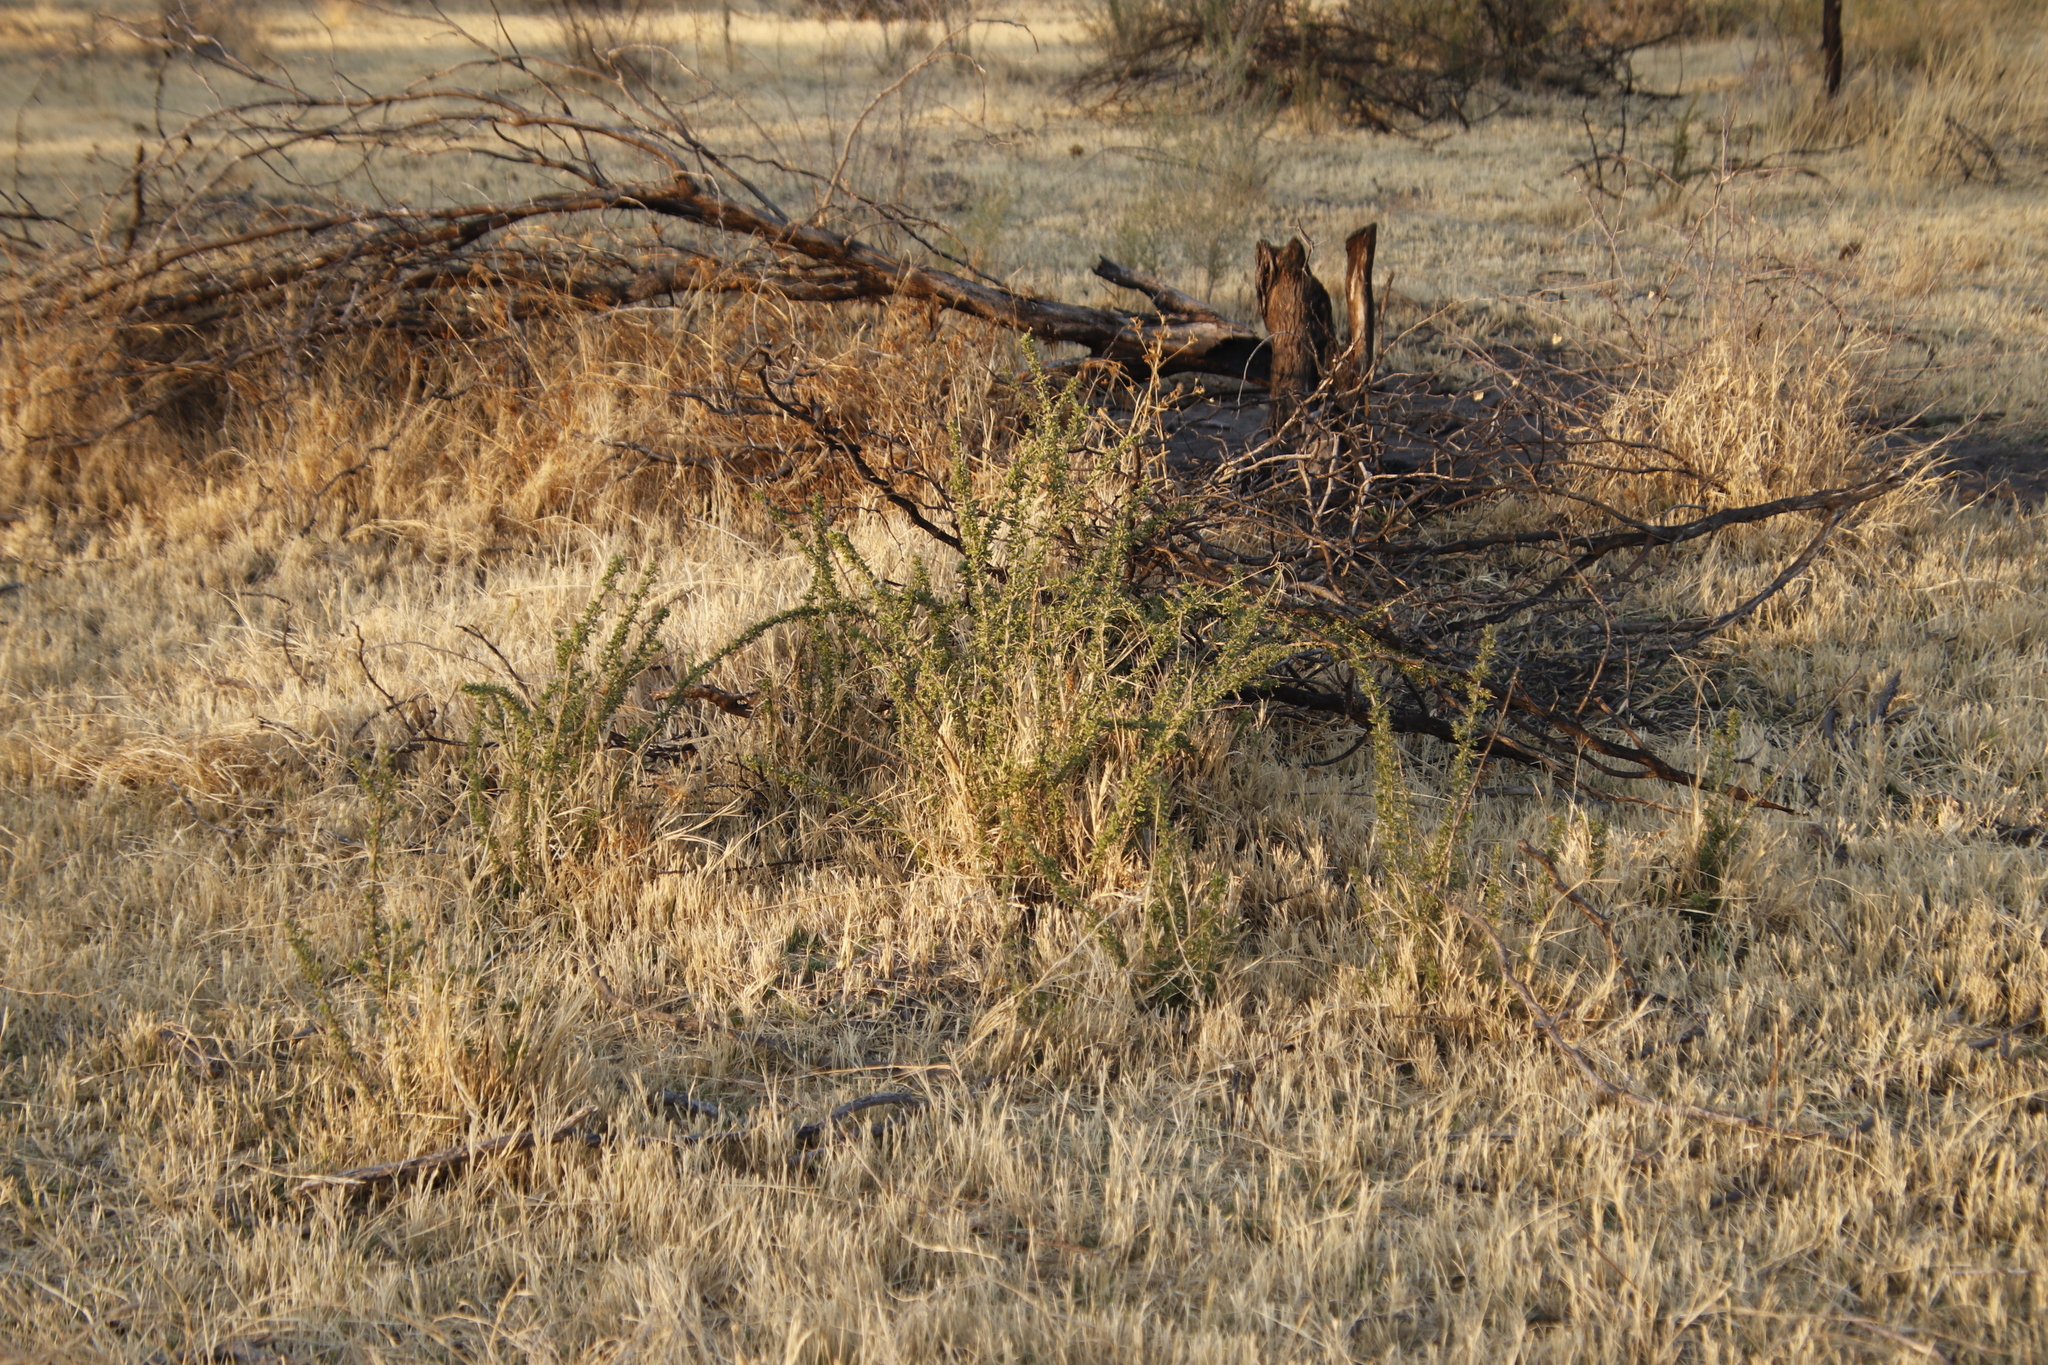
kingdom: Plantae
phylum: Tracheophyta
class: Magnoliopsida
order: Solanales
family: Solanaceae
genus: Lycium
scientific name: Lycium villosum
